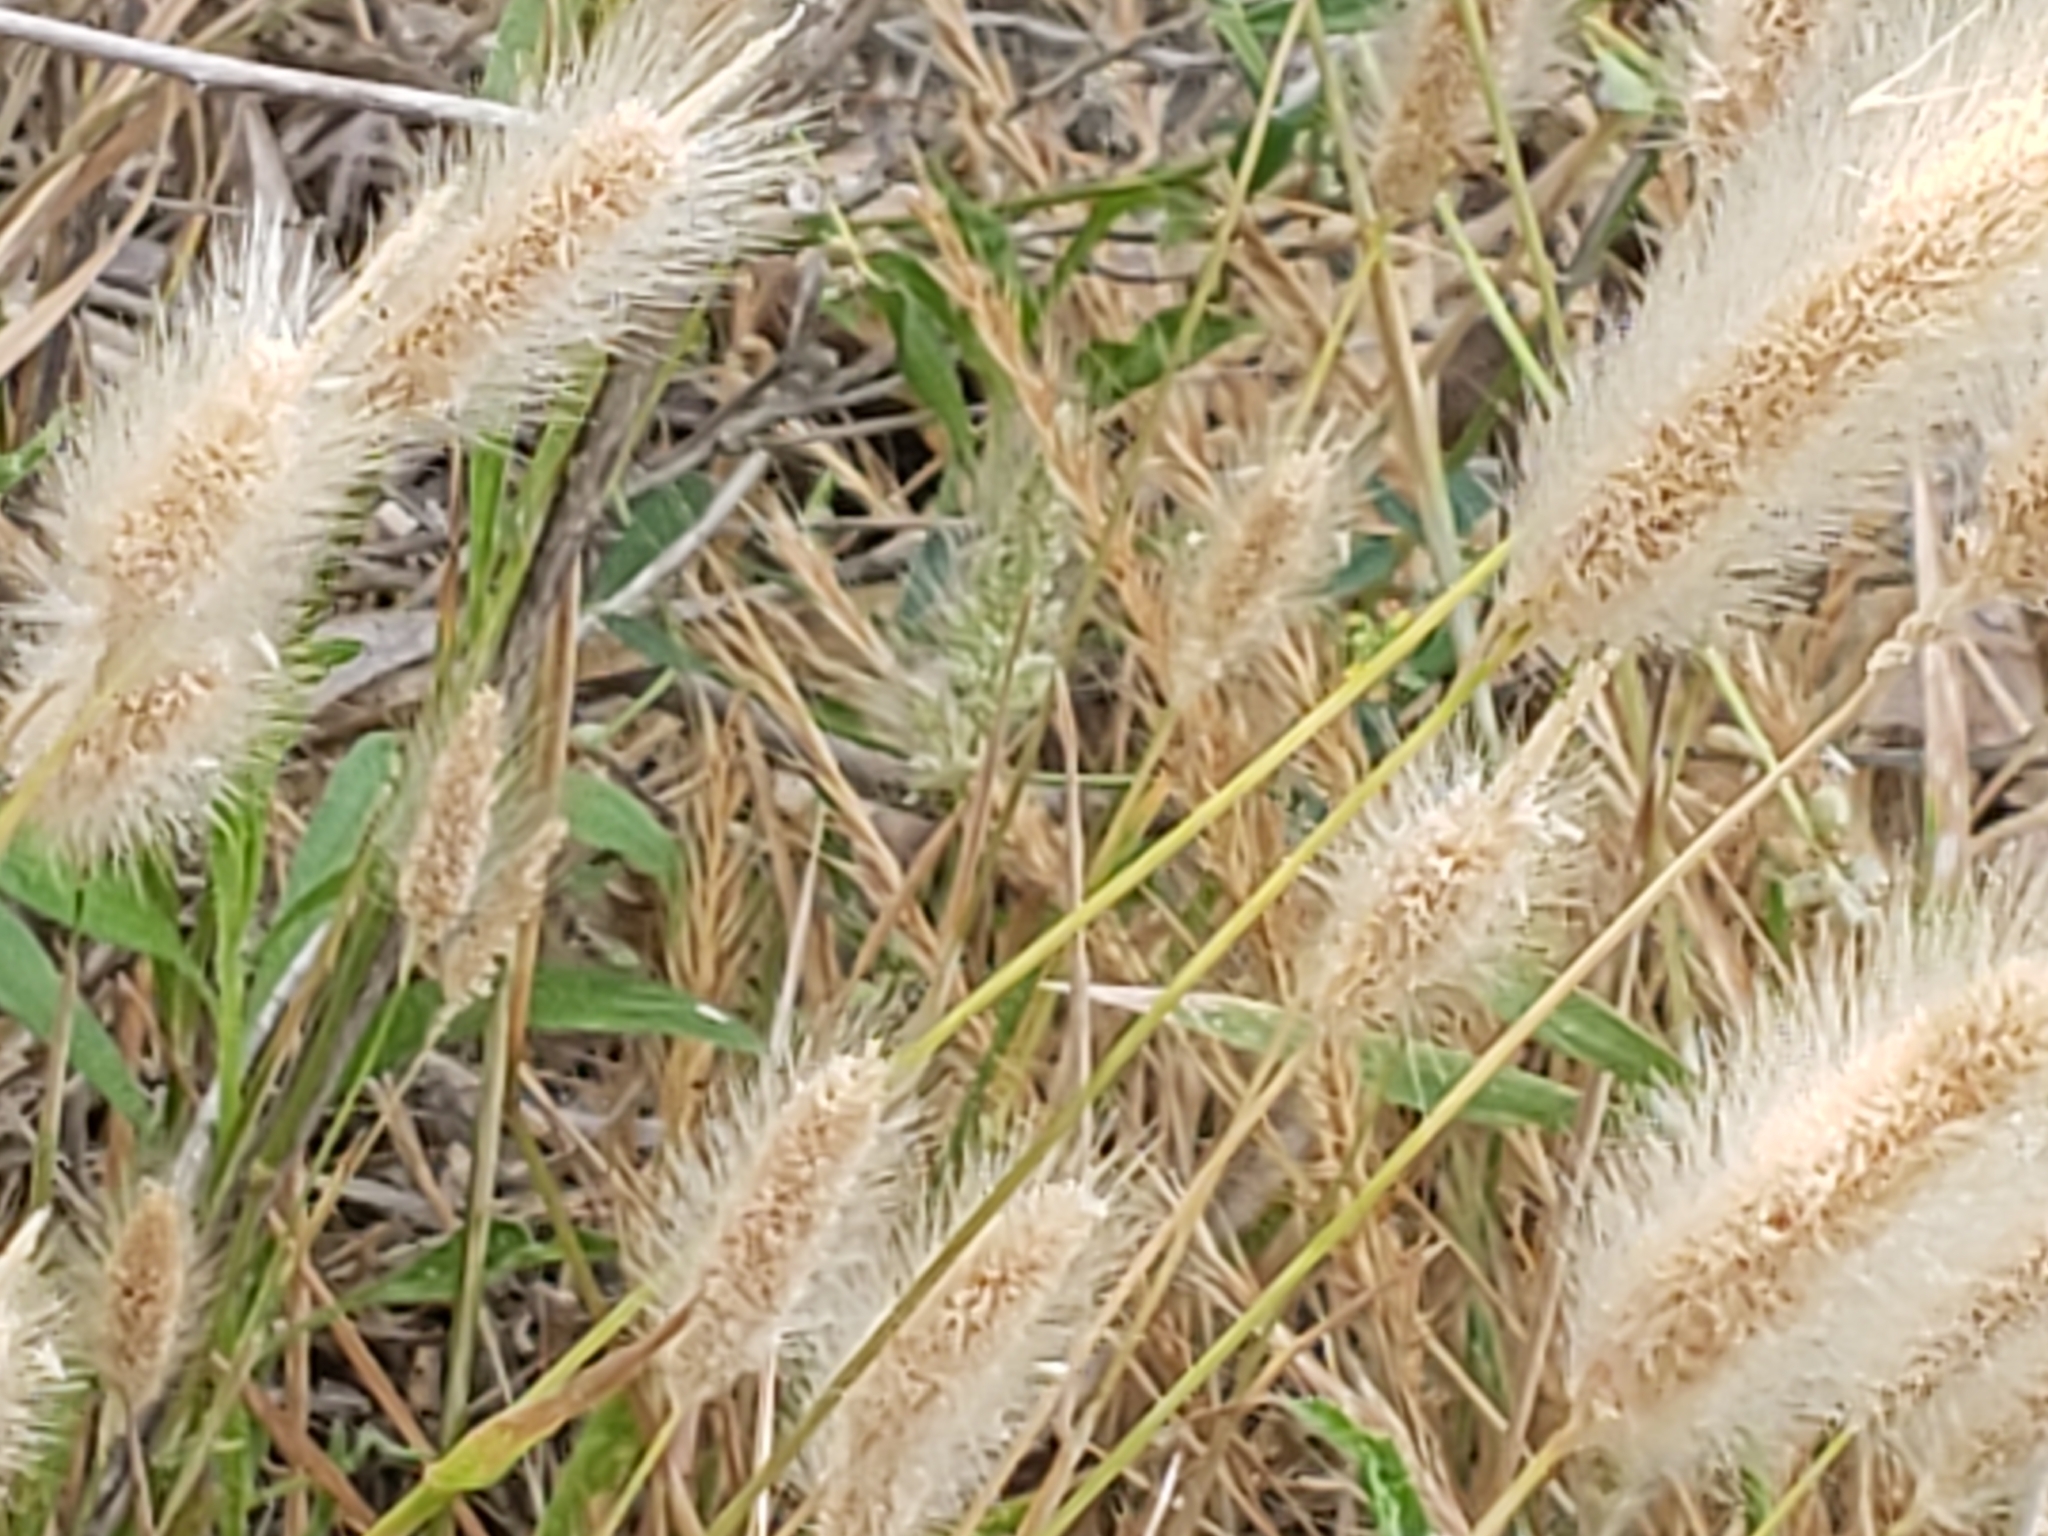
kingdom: Plantae
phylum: Tracheophyta
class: Liliopsida
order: Poales
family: Poaceae
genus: Polypogon
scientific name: Polypogon monspeliensis
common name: Annual rabbitsfoot grass
